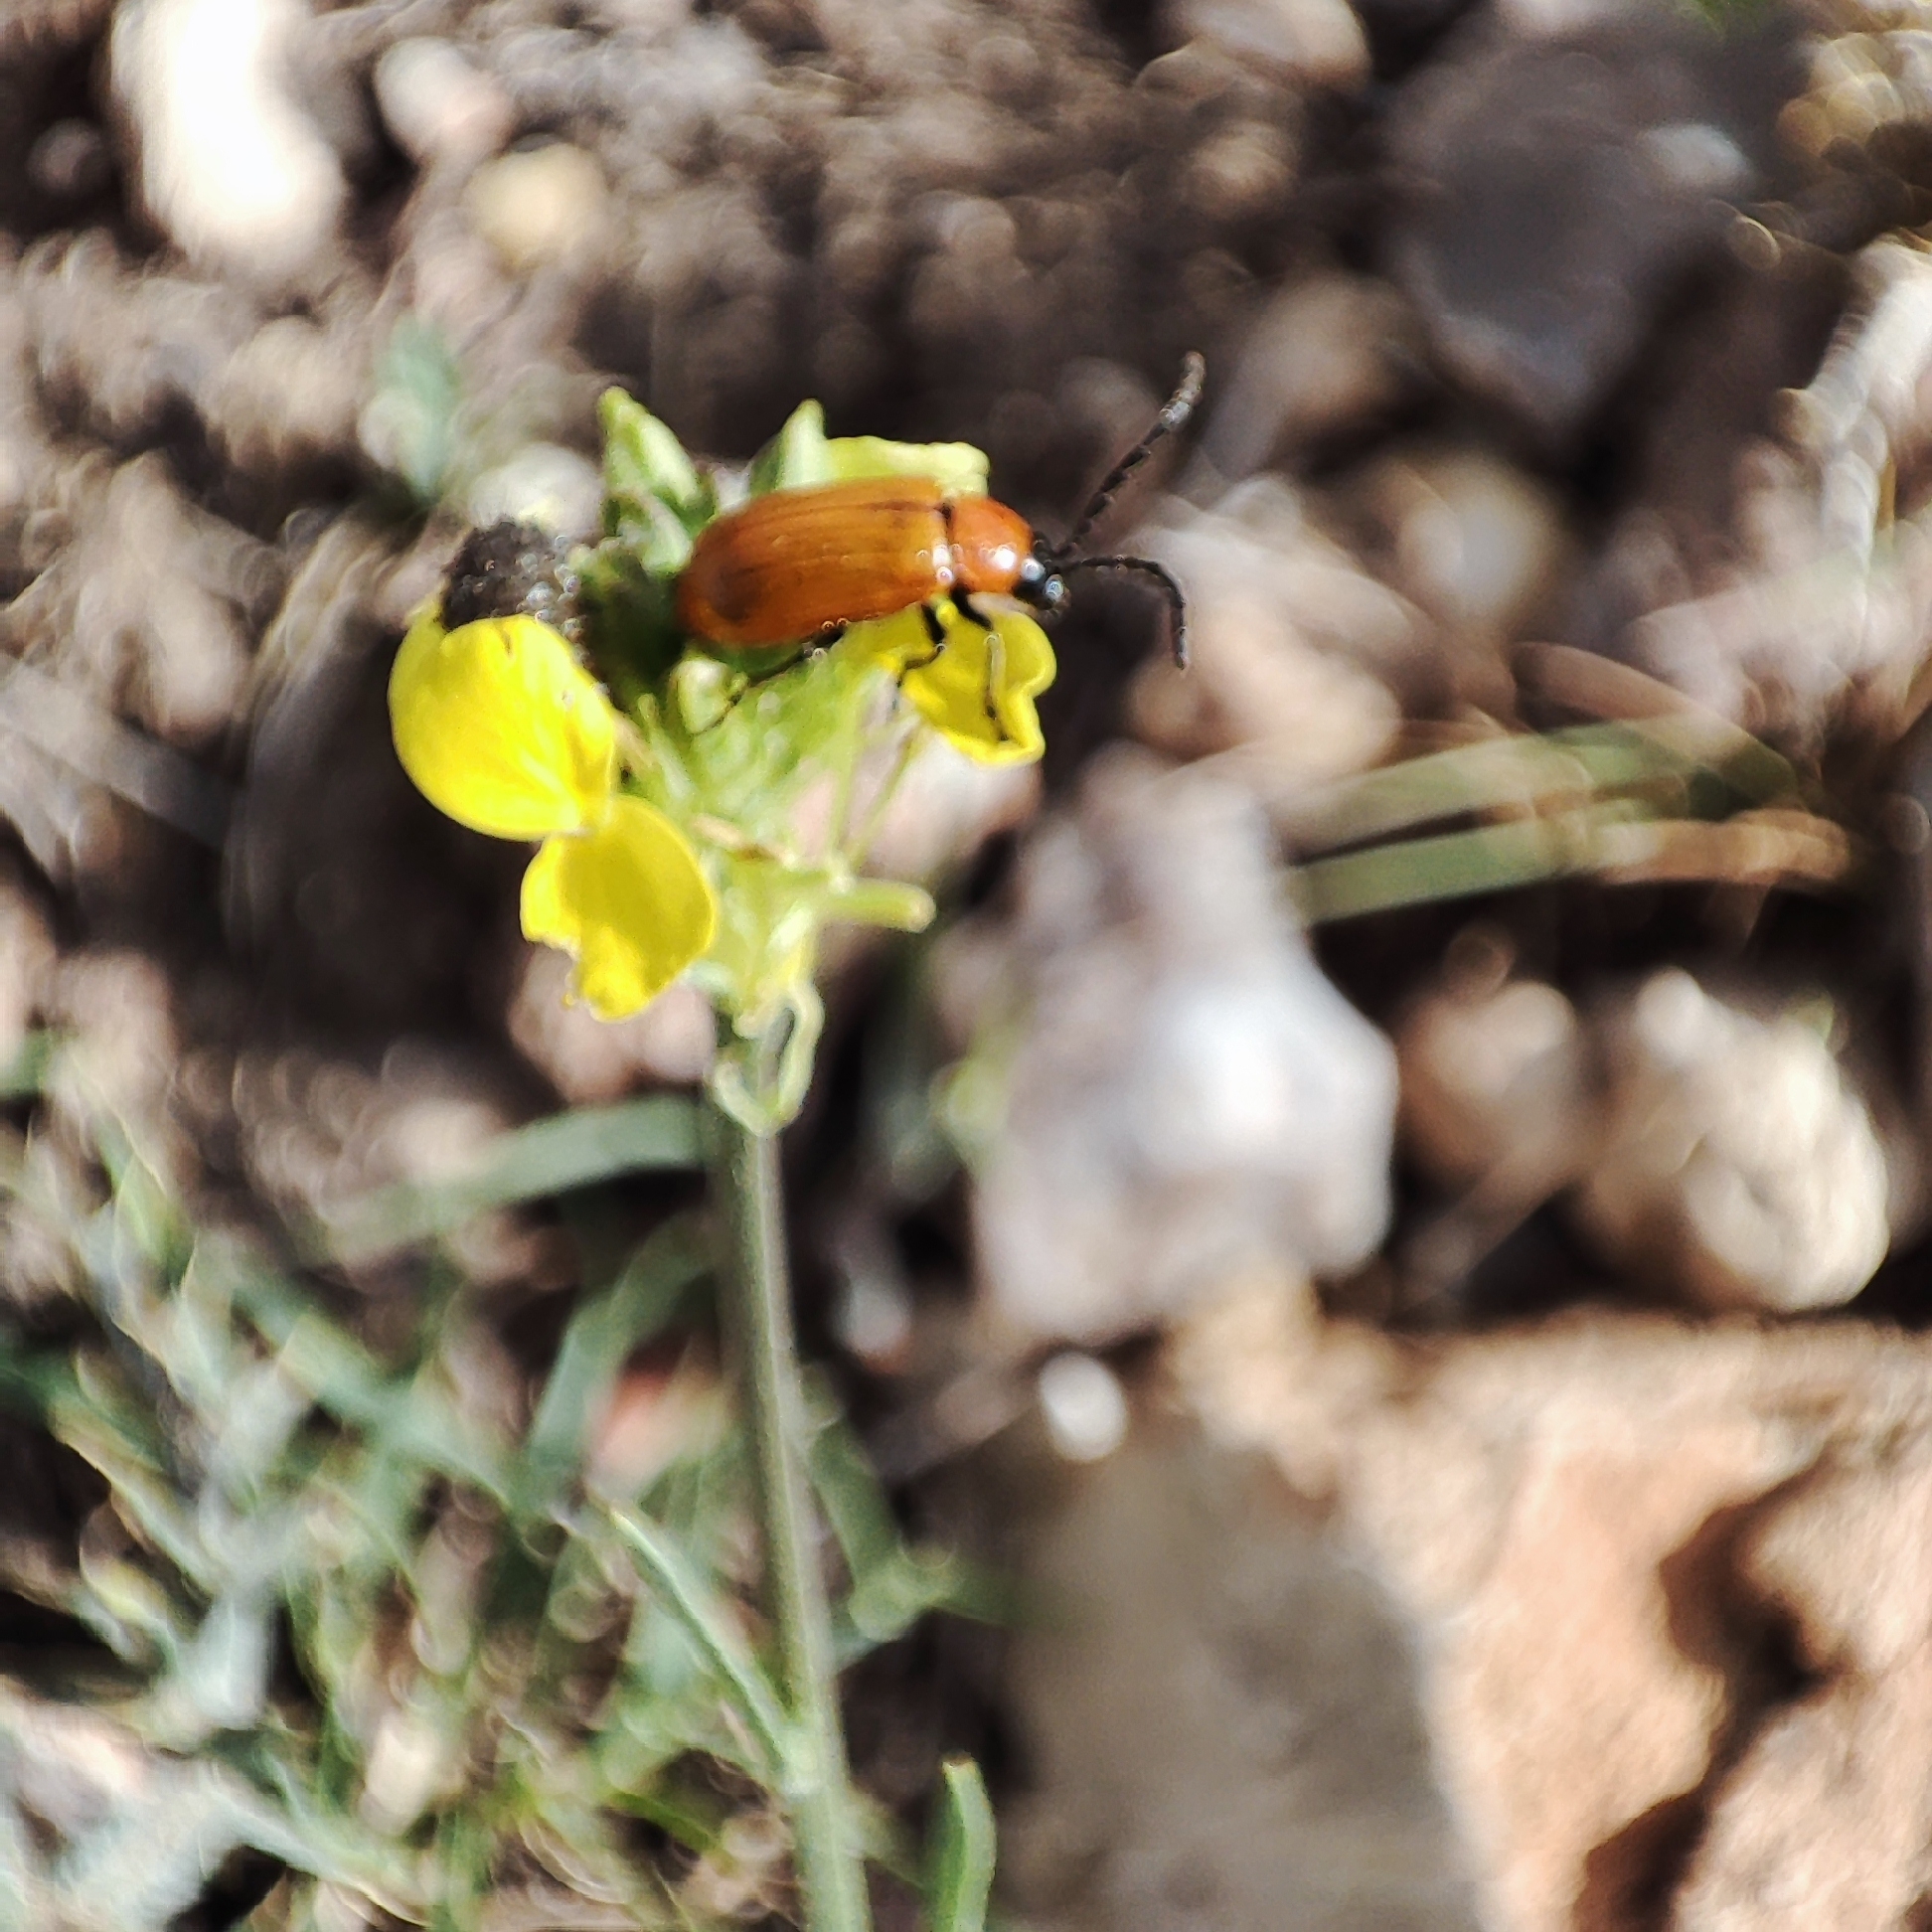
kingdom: Animalia
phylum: Arthropoda
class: Insecta
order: Coleoptera
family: Chrysomelidae
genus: Exosoma
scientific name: Exosoma lusitanicum
